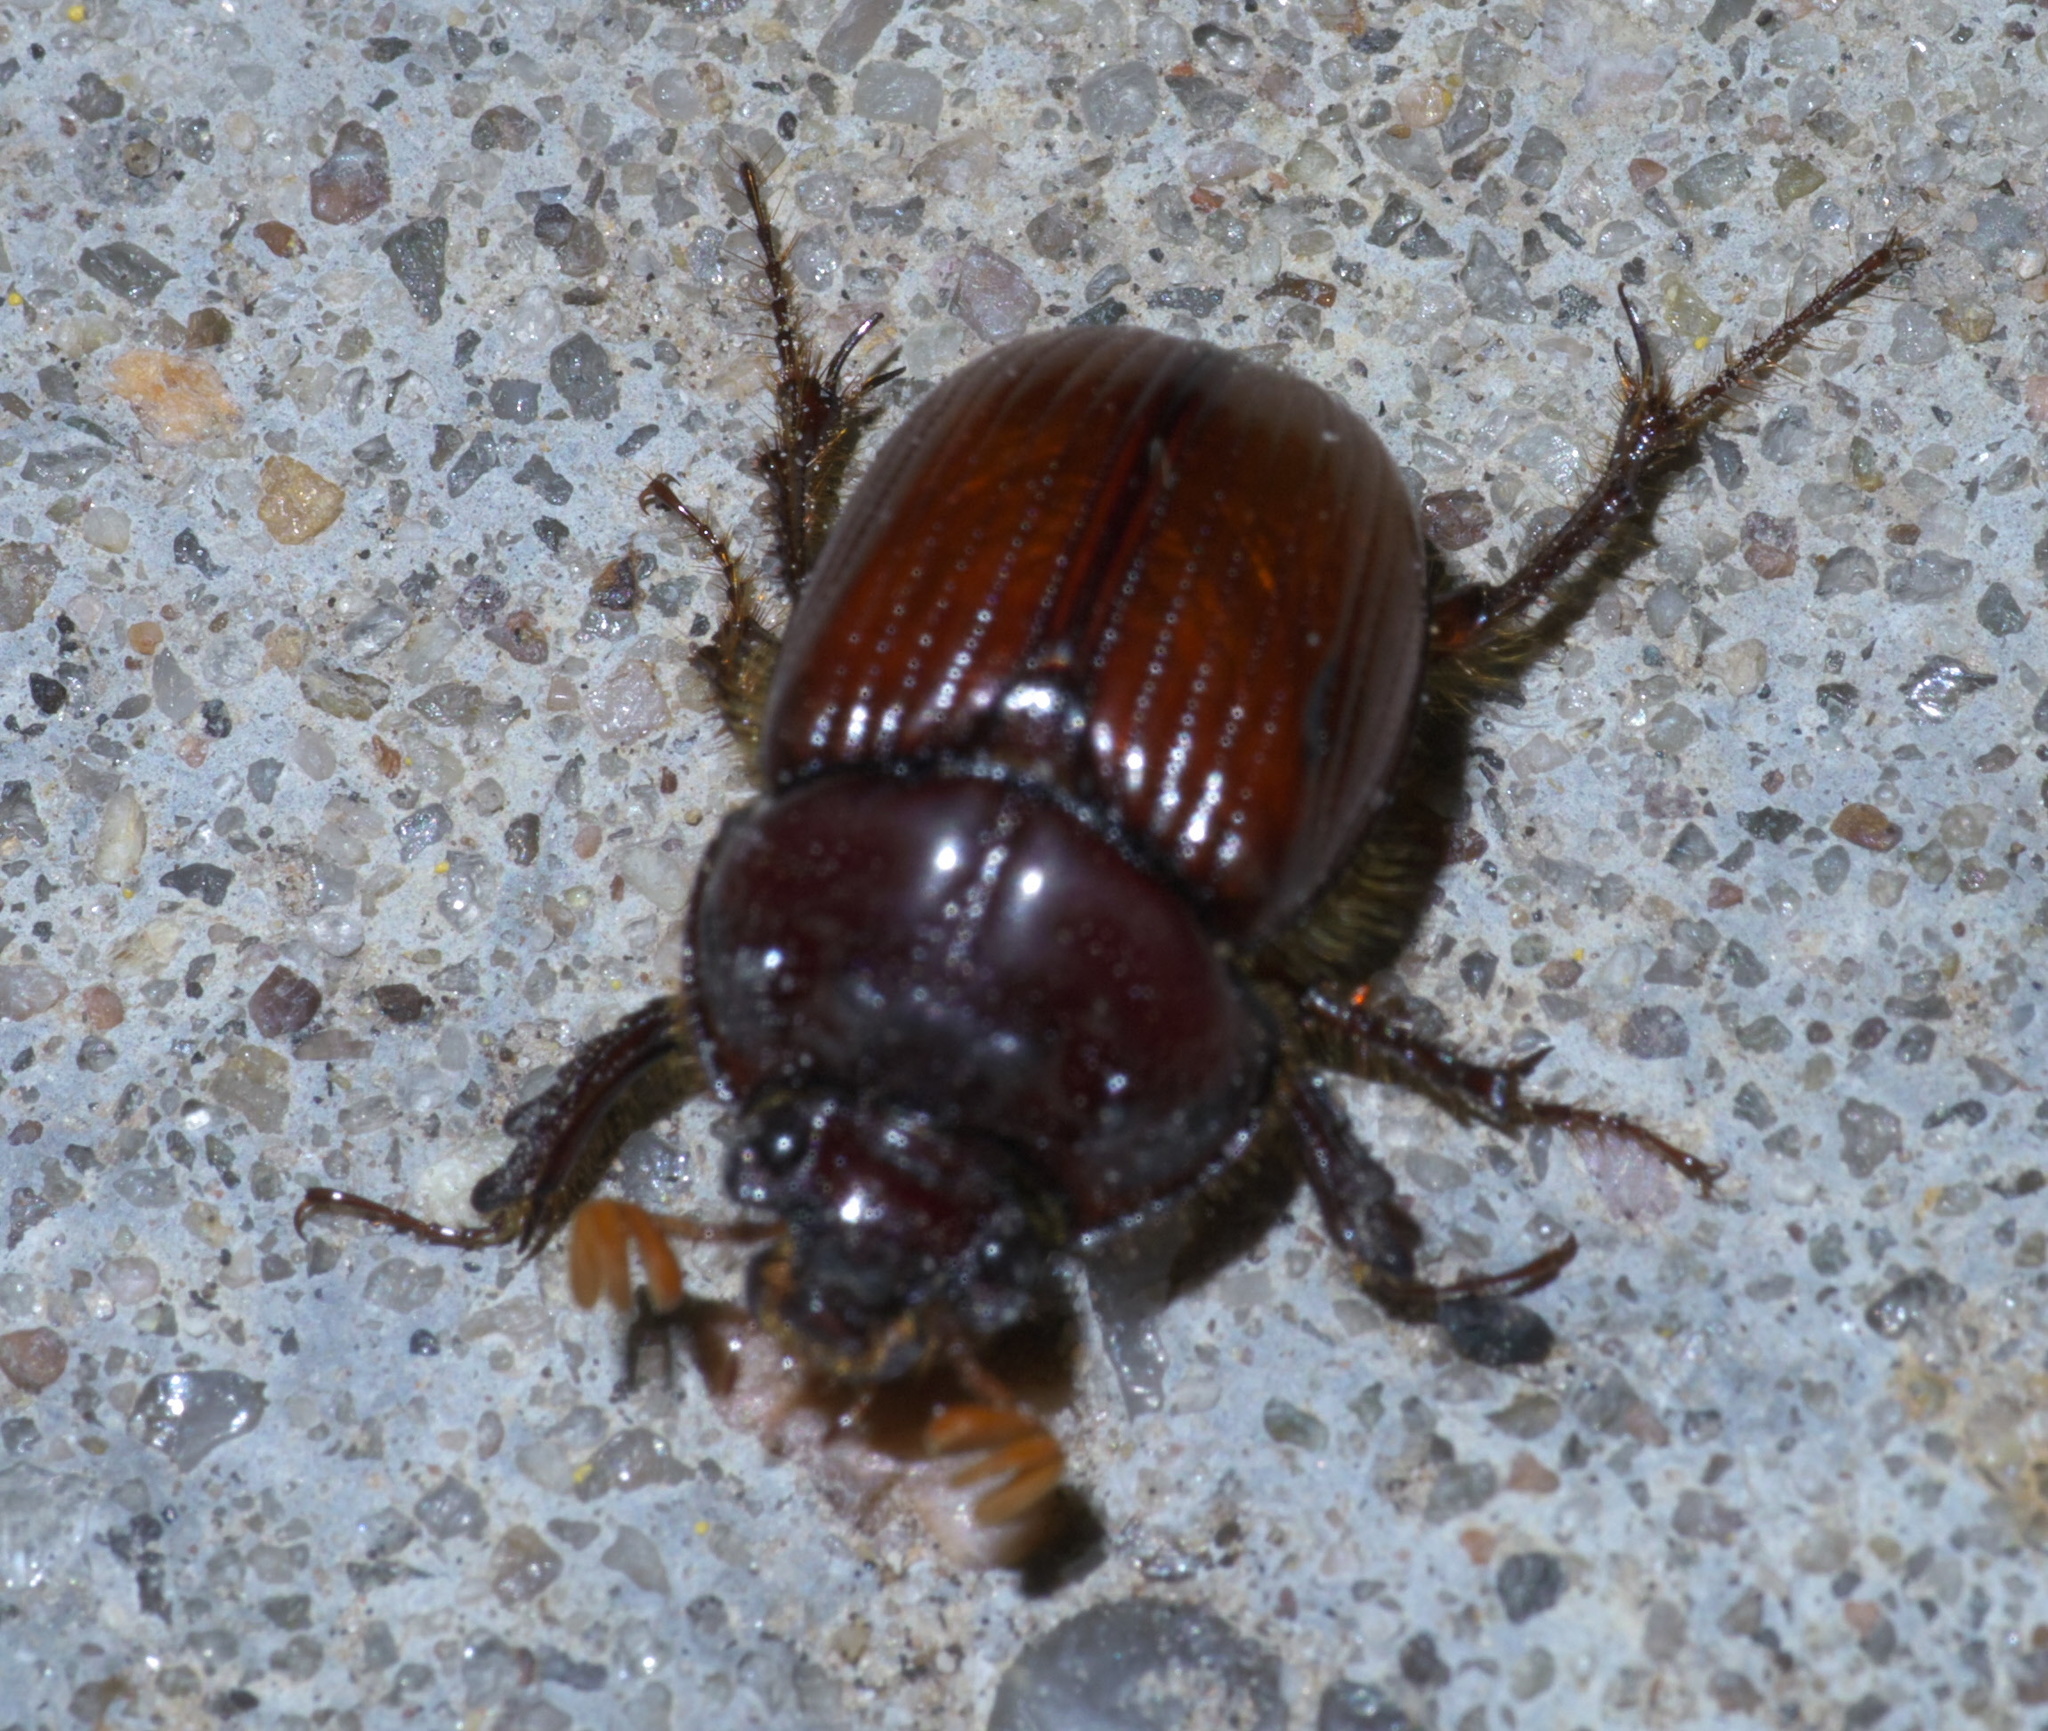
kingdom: Animalia
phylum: Arthropoda
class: Insecta
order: Coleoptera
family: Geotrupidae
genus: Eucanthus
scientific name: Eucanthus impressus
